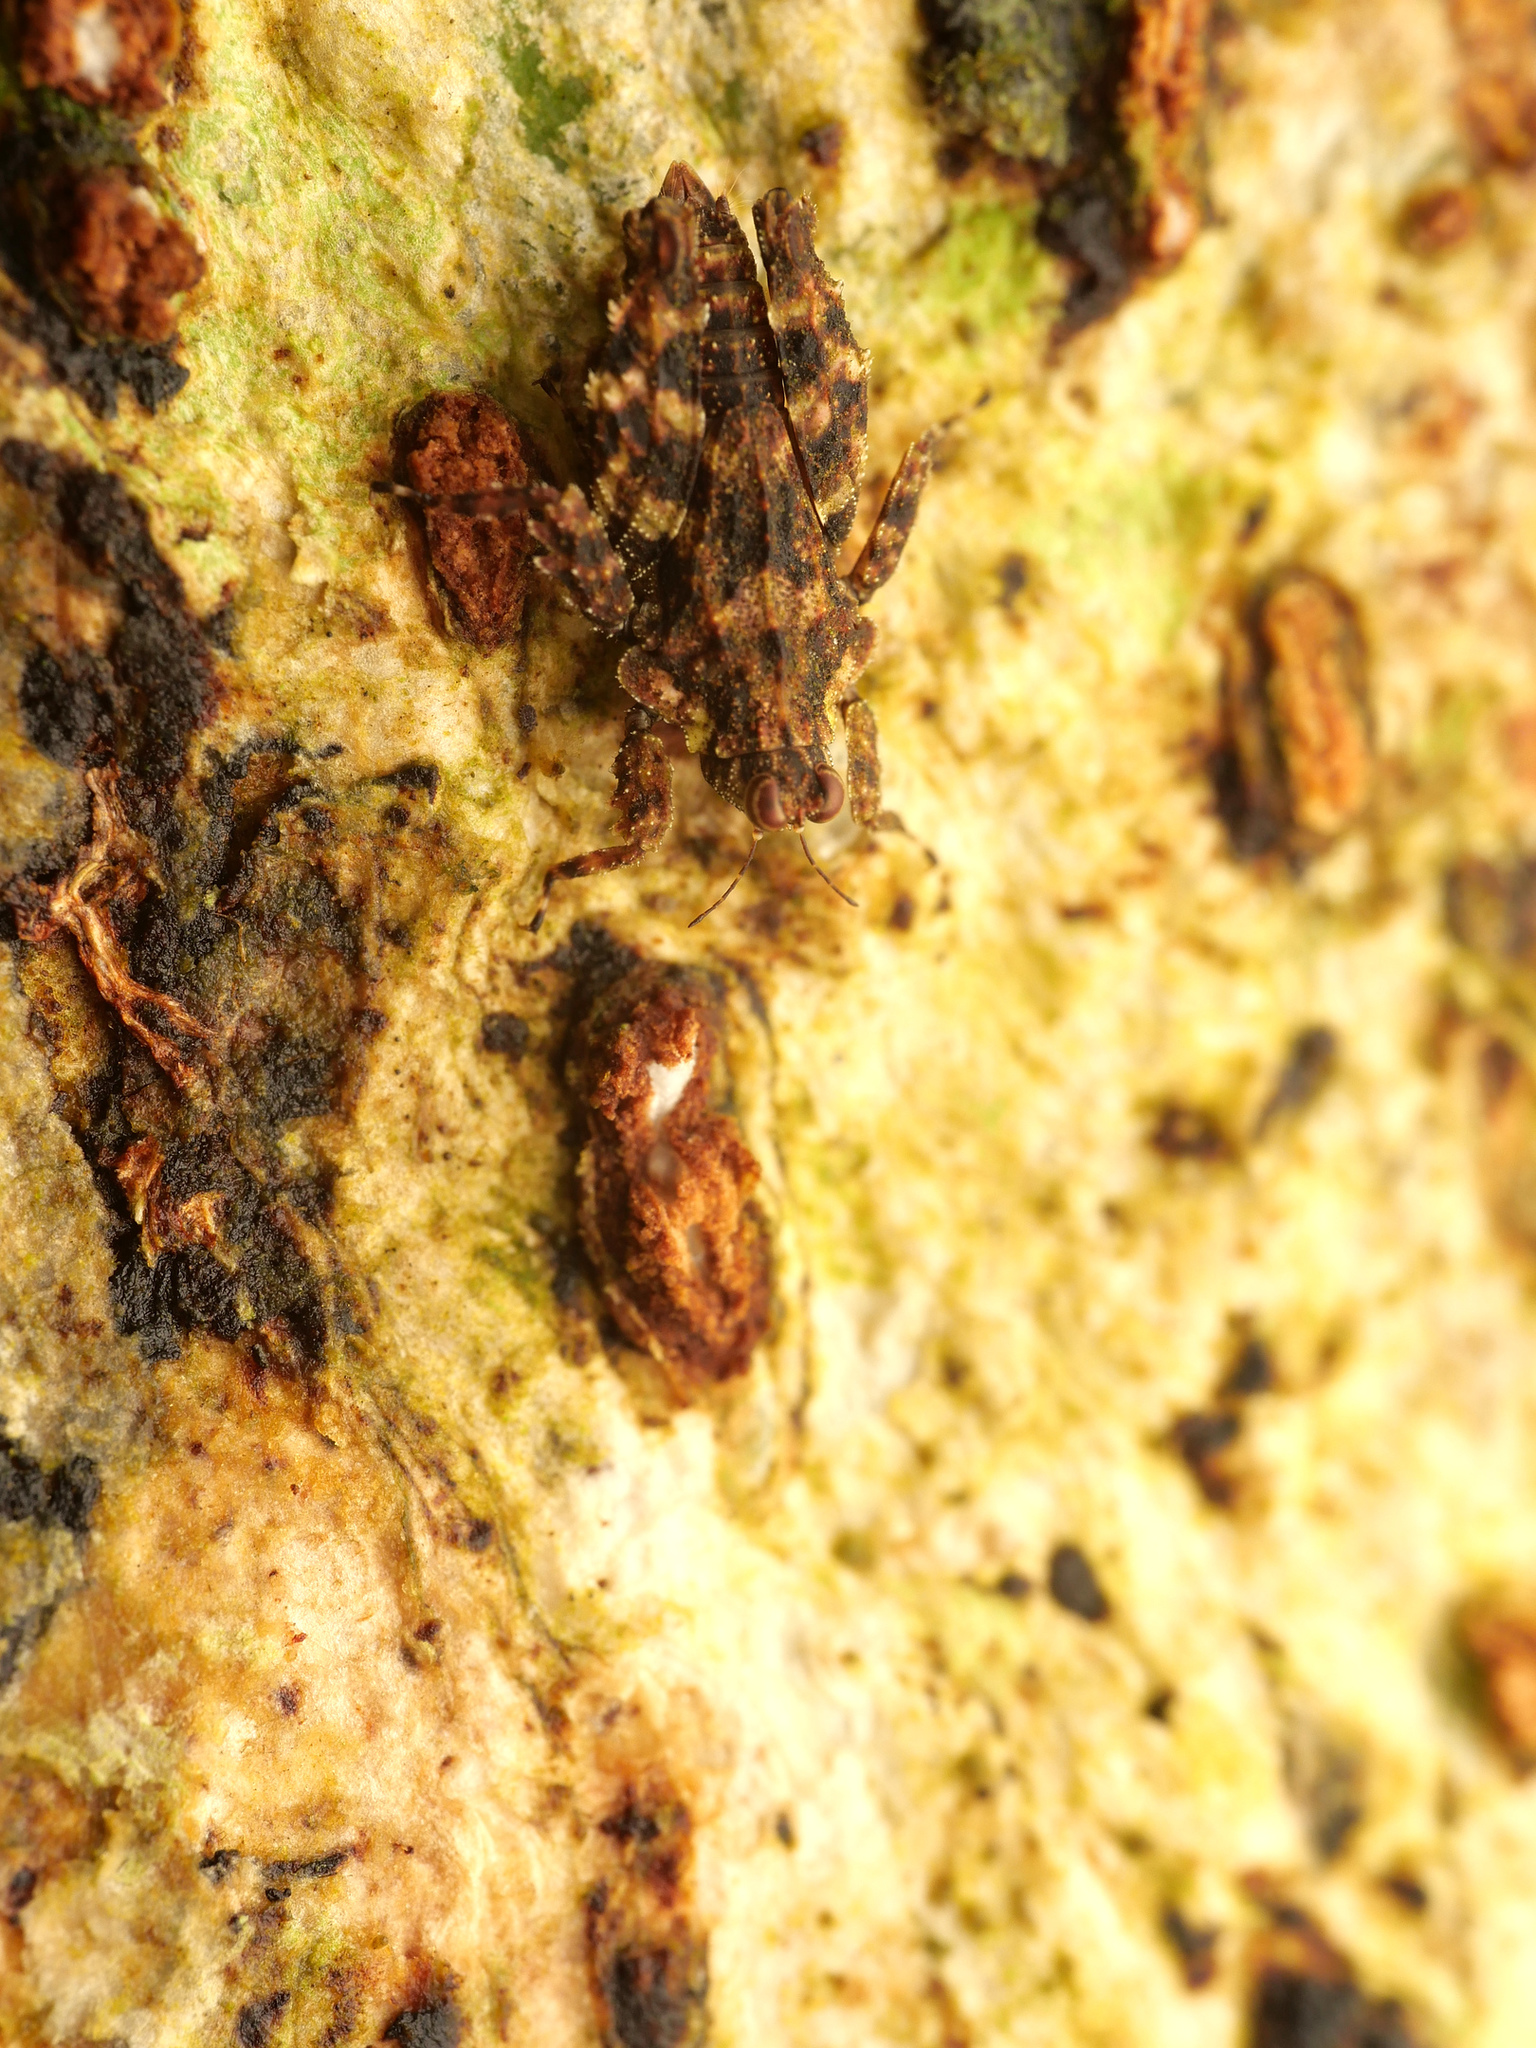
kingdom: Animalia
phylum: Arthropoda
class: Insecta
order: Orthoptera
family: Tetrigidae
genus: Planotettix
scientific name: Planotettix astrolabebayensis
